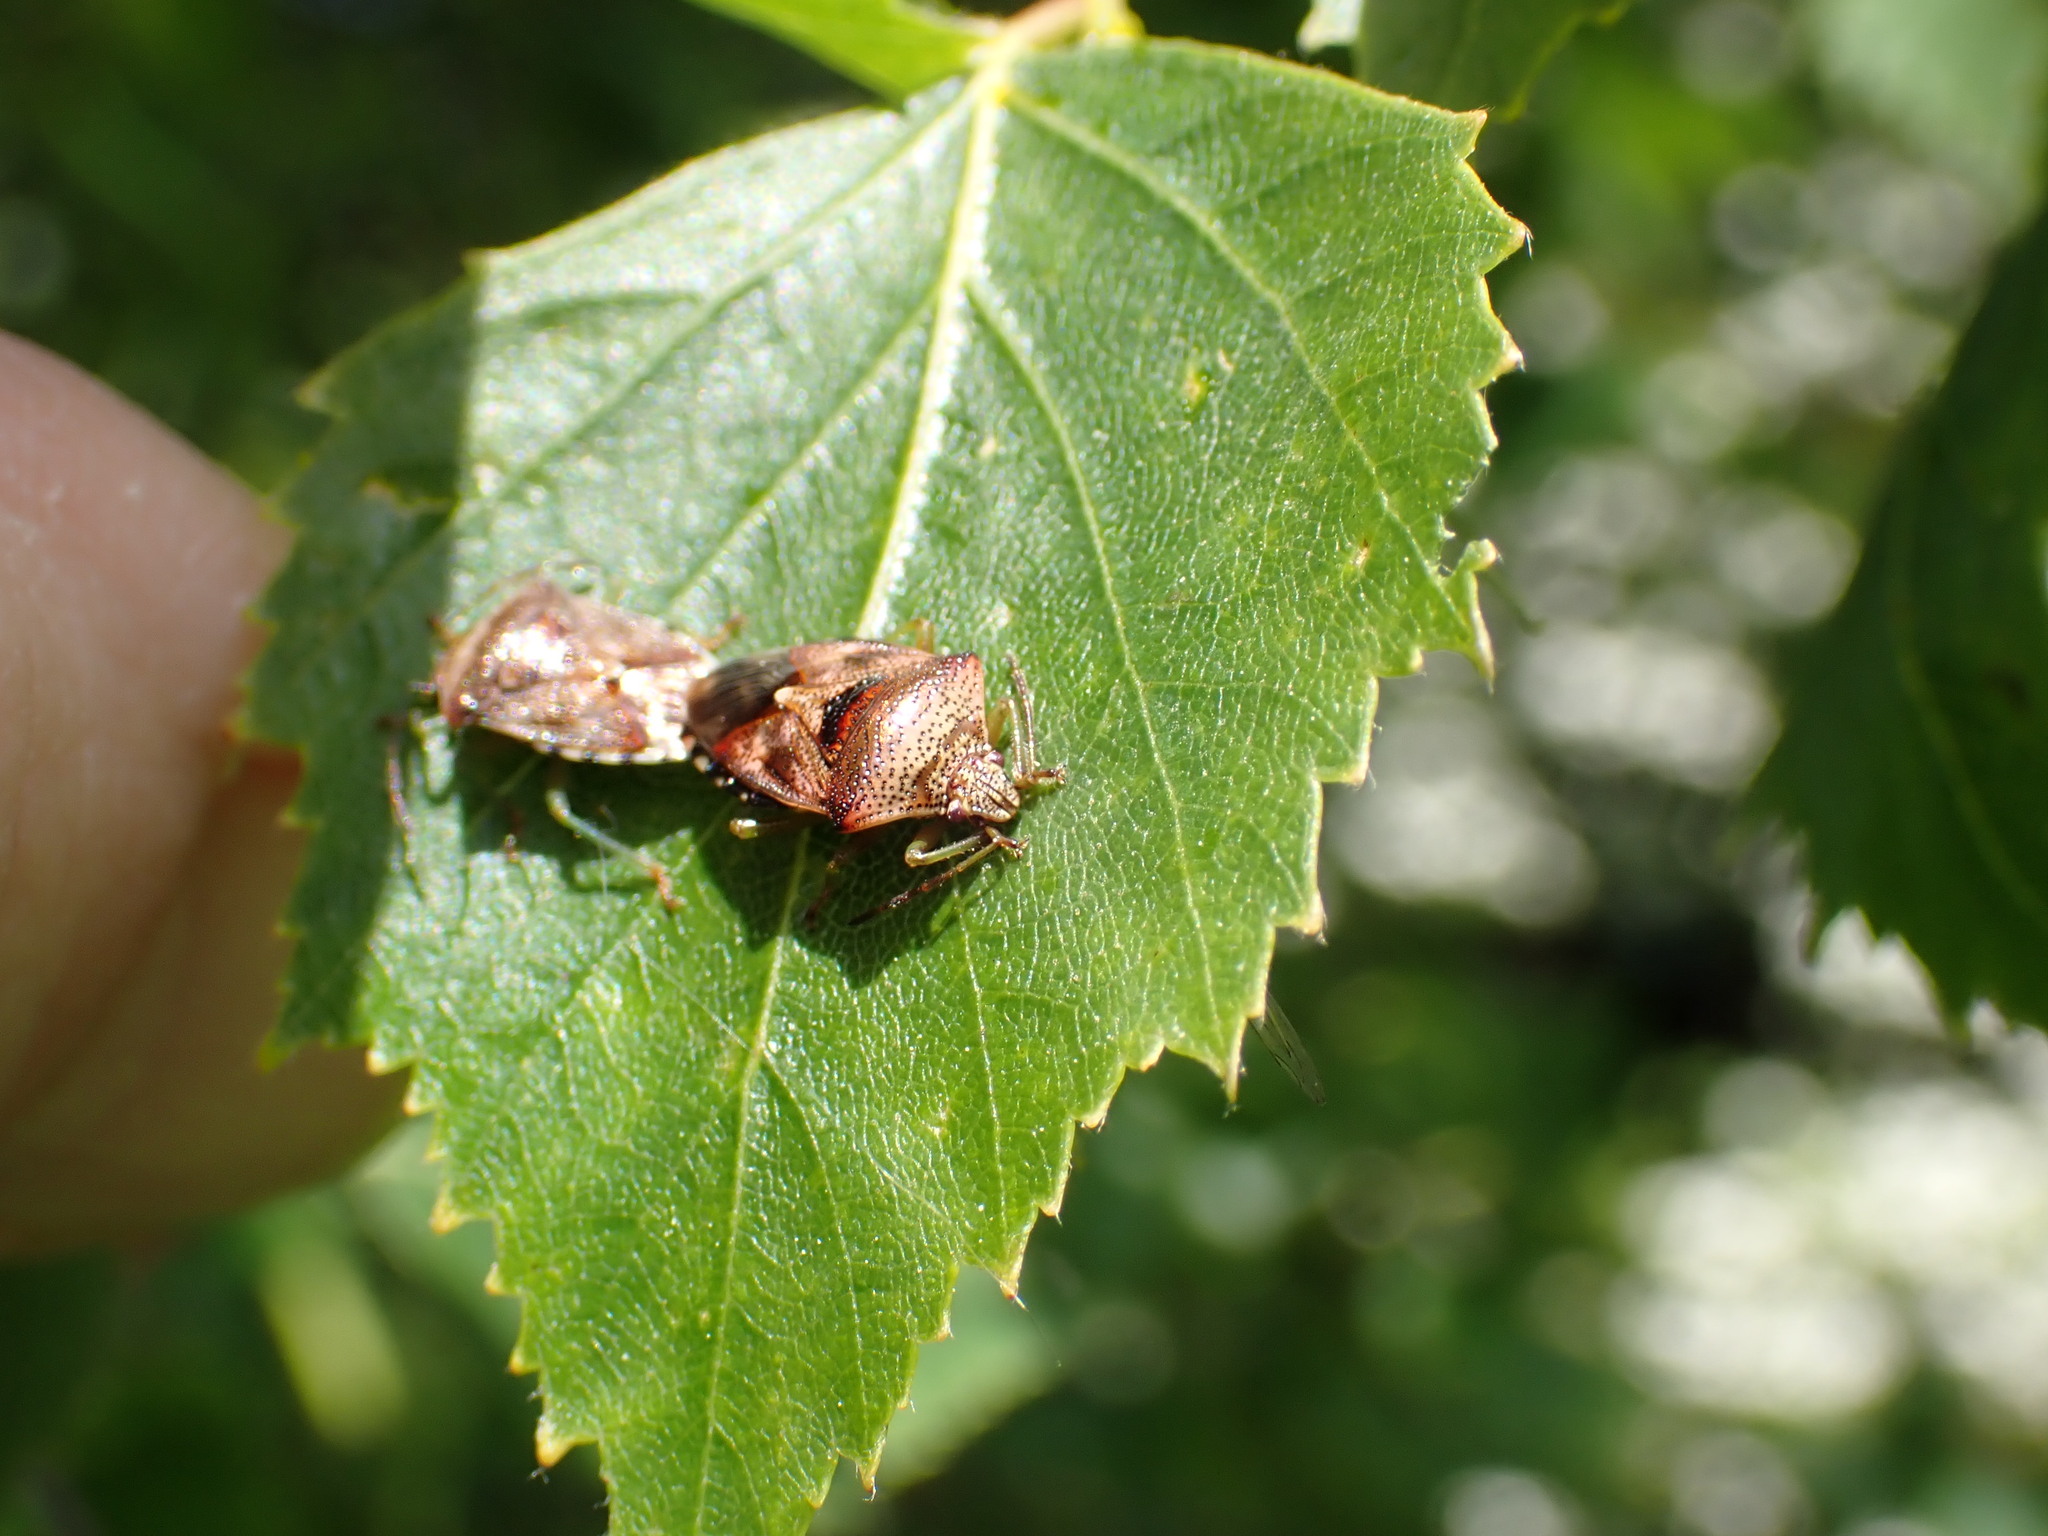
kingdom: Animalia
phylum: Arthropoda
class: Insecta
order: Hemiptera
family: Acanthosomatidae
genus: Elasmucha
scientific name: Elasmucha grisea
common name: Parent bug
